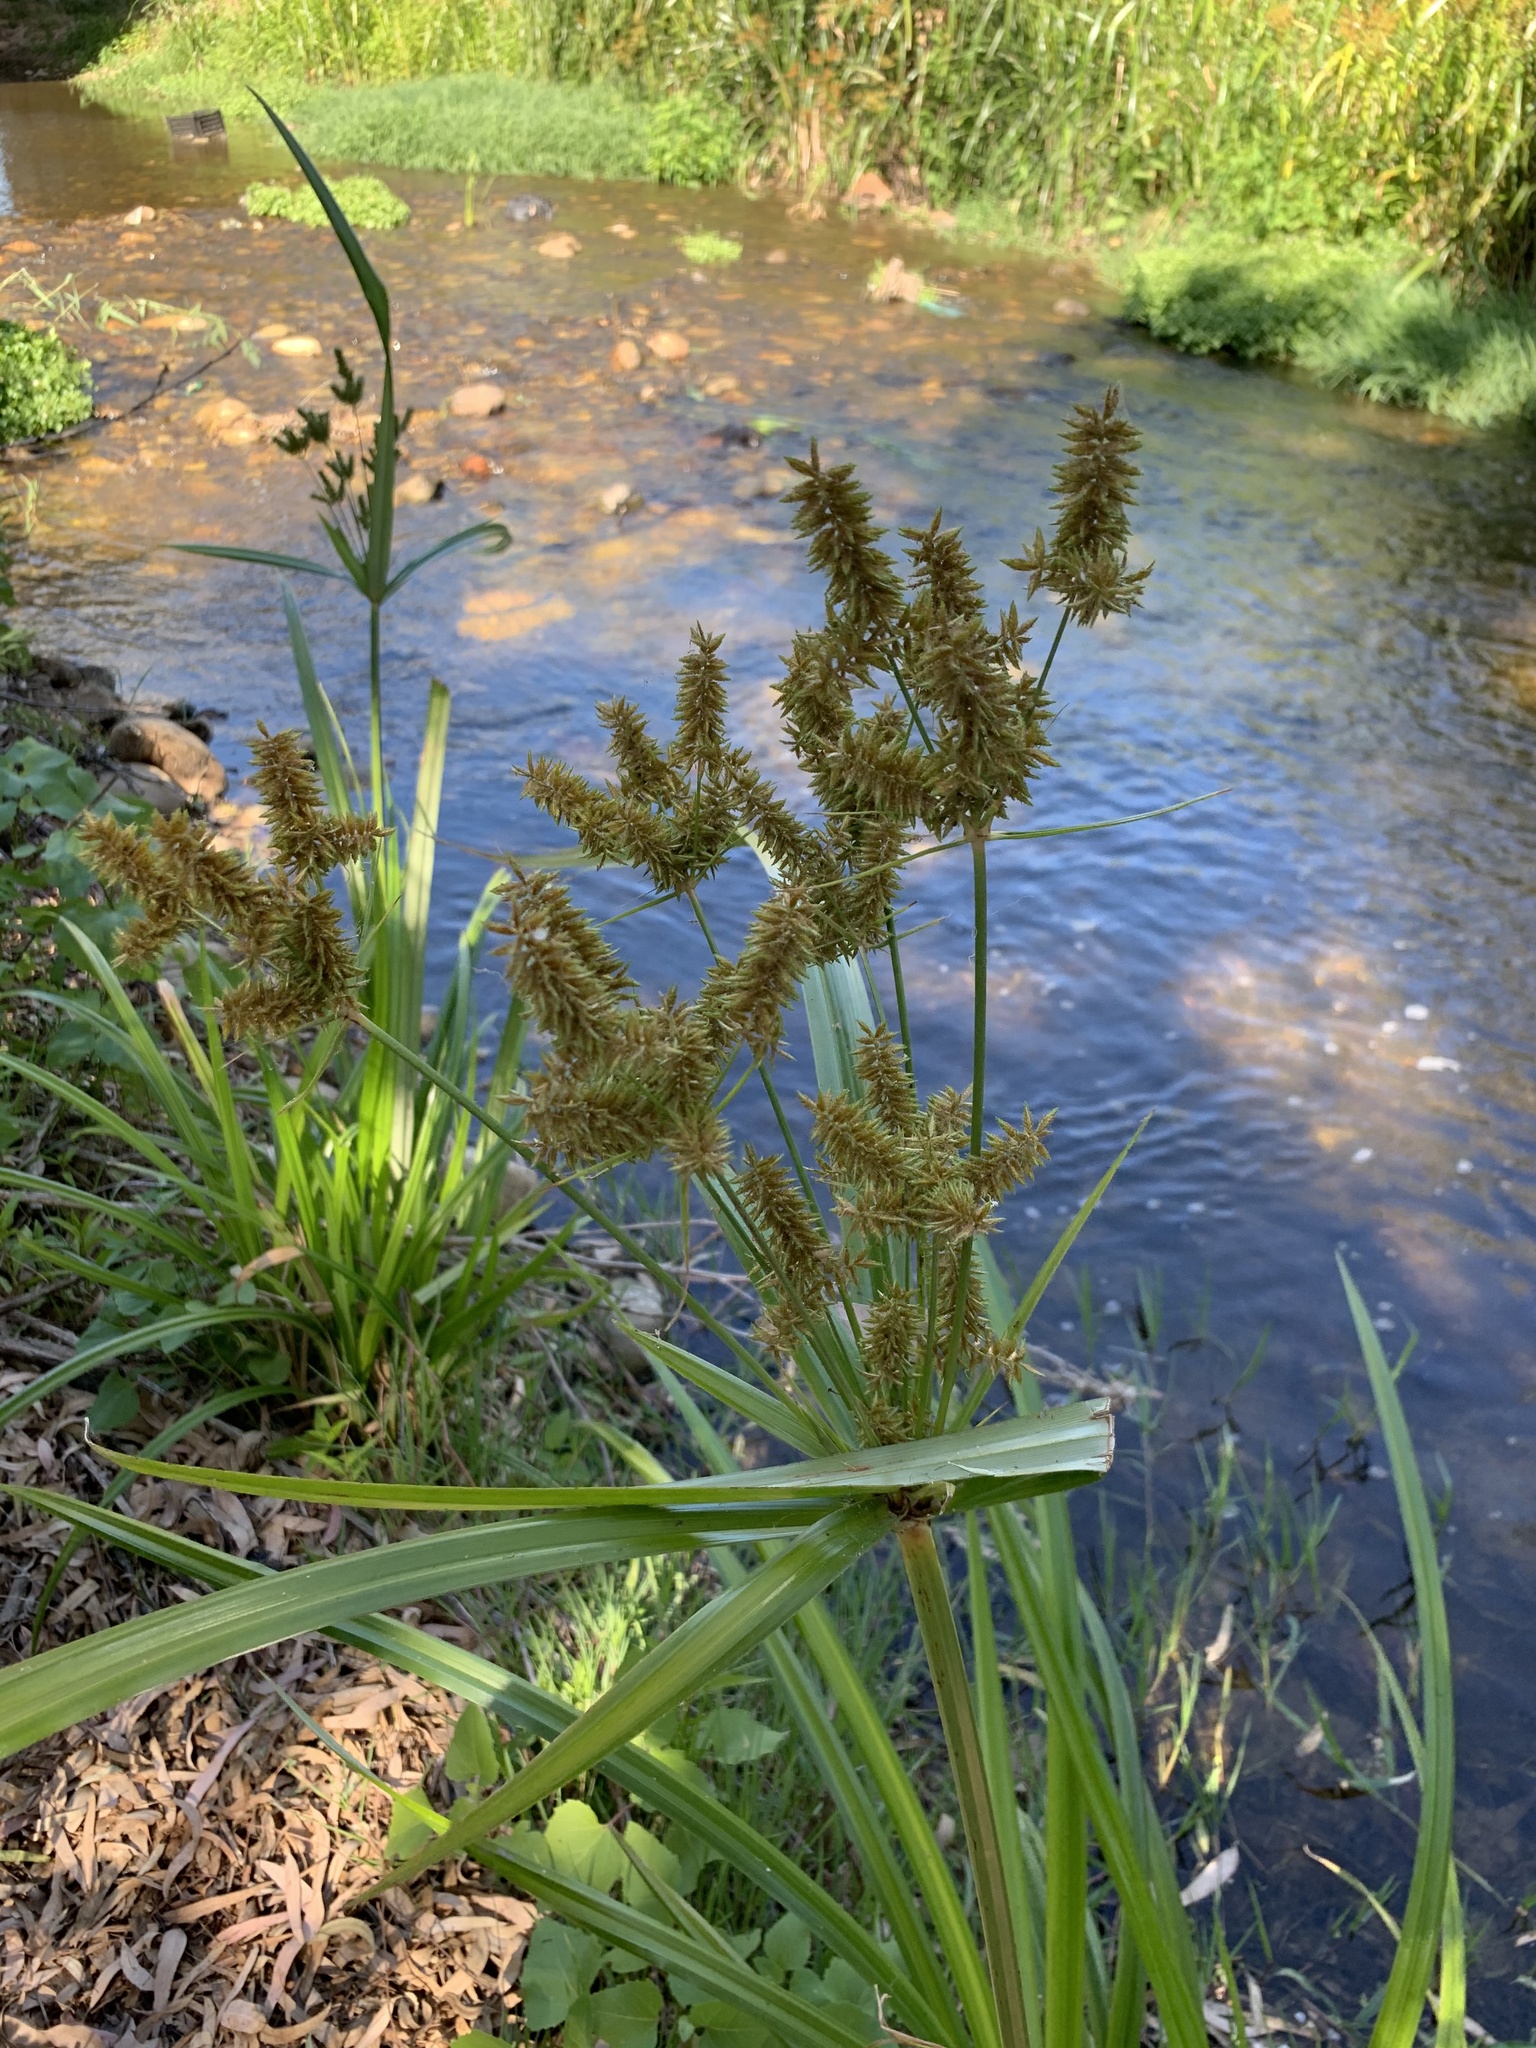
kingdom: Plantae
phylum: Tracheophyta
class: Liliopsida
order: Poales
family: Cyperaceae
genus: Cyperus
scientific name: Cyperus dives
